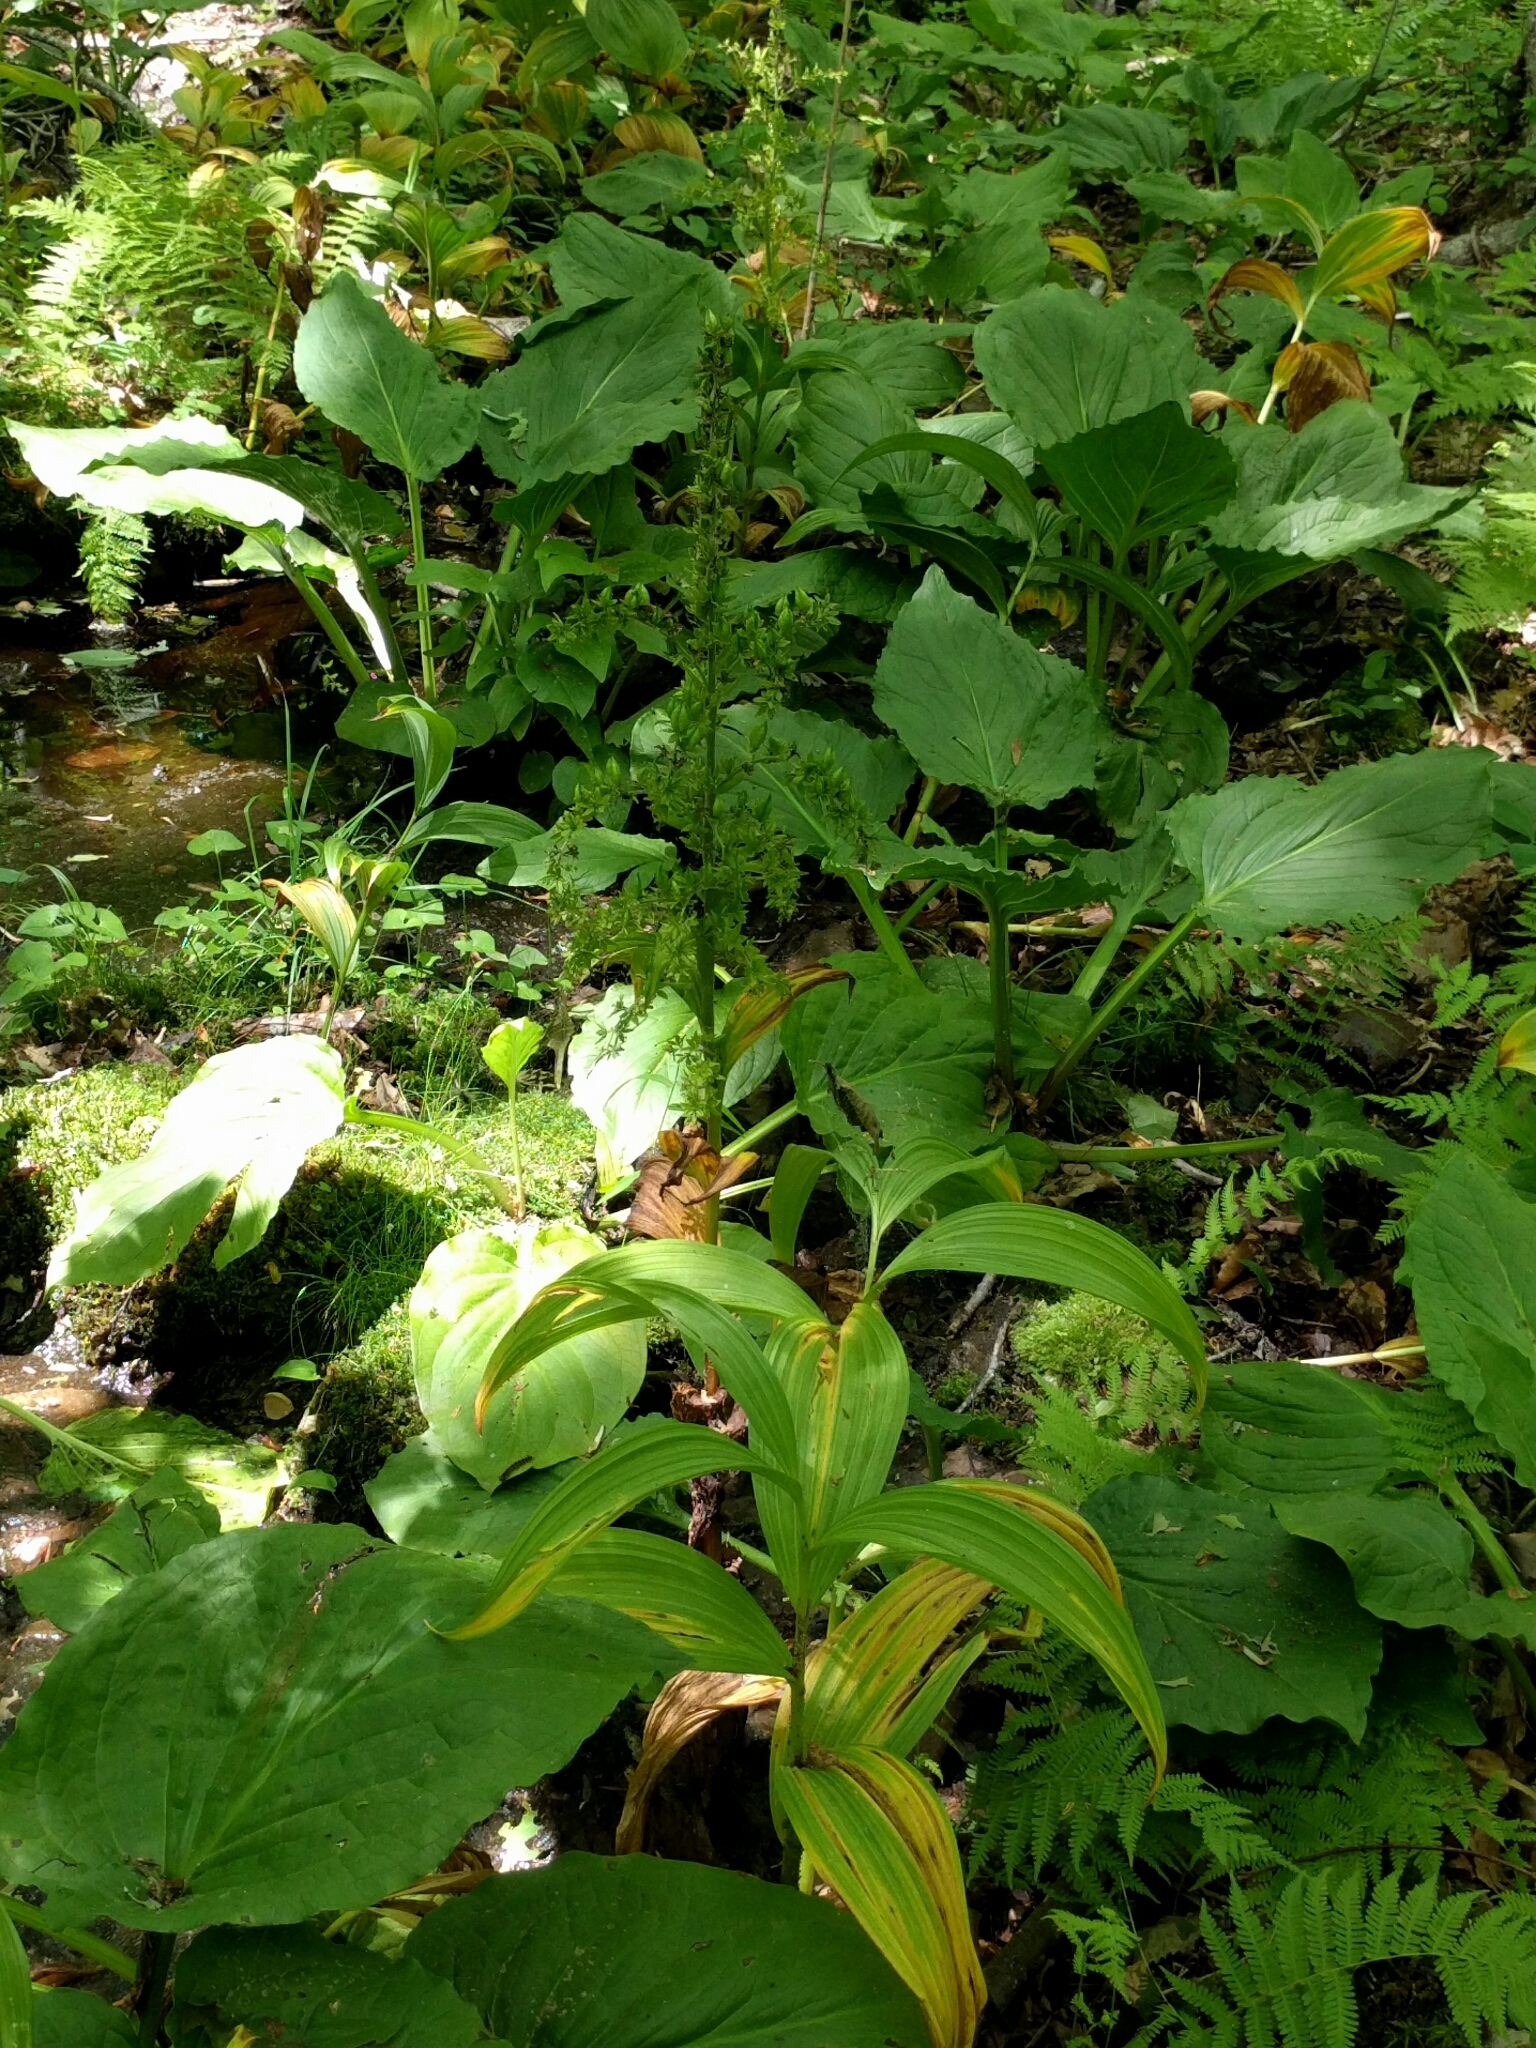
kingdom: Plantae
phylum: Tracheophyta
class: Liliopsida
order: Liliales
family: Melanthiaceae
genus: Veratrum
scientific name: Veratrum viride
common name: American false hellebore
